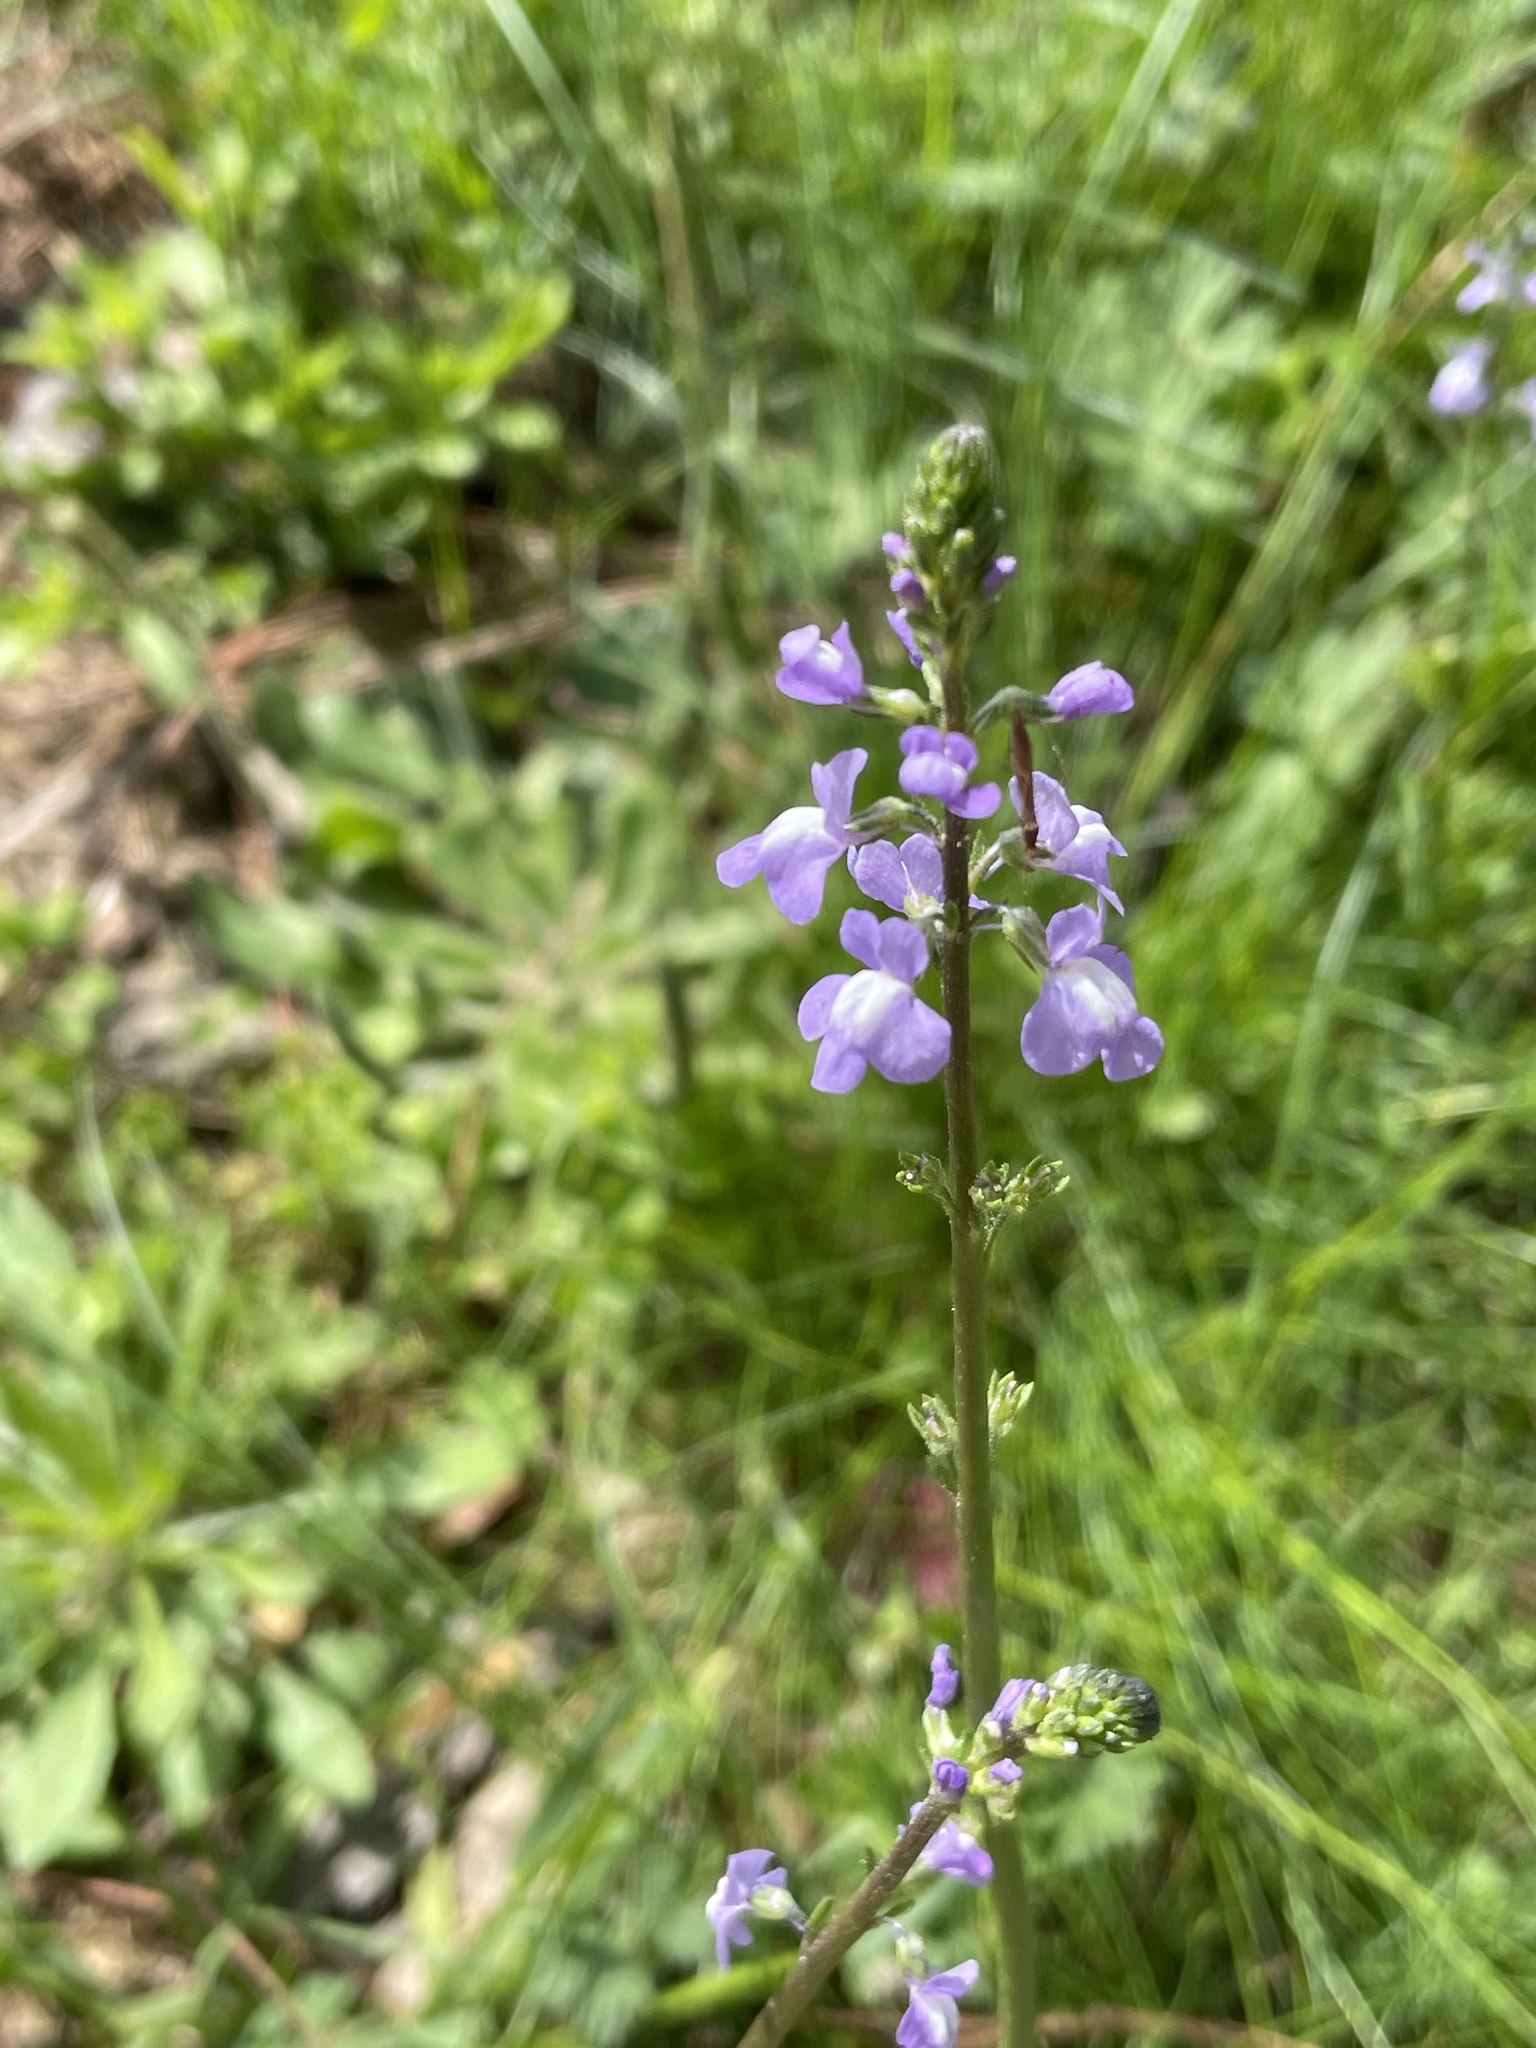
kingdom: Plantae
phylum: Tracheophyta
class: Magnoliopsida
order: Lamiales
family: Plantaginaceae
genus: Nuttallanthus
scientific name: Nuttallanthus canadensis
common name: Blue toadflax
